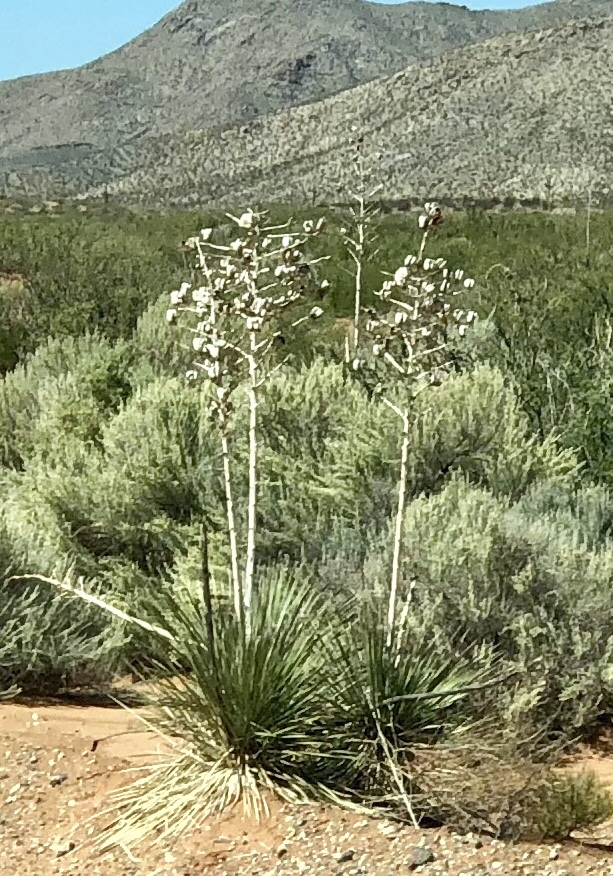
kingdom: Plantae
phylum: Tracheophyta
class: Liliopsida
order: Asparagales
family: Asparagaceae
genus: Yucca
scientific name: Yucca elata
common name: Palmella
